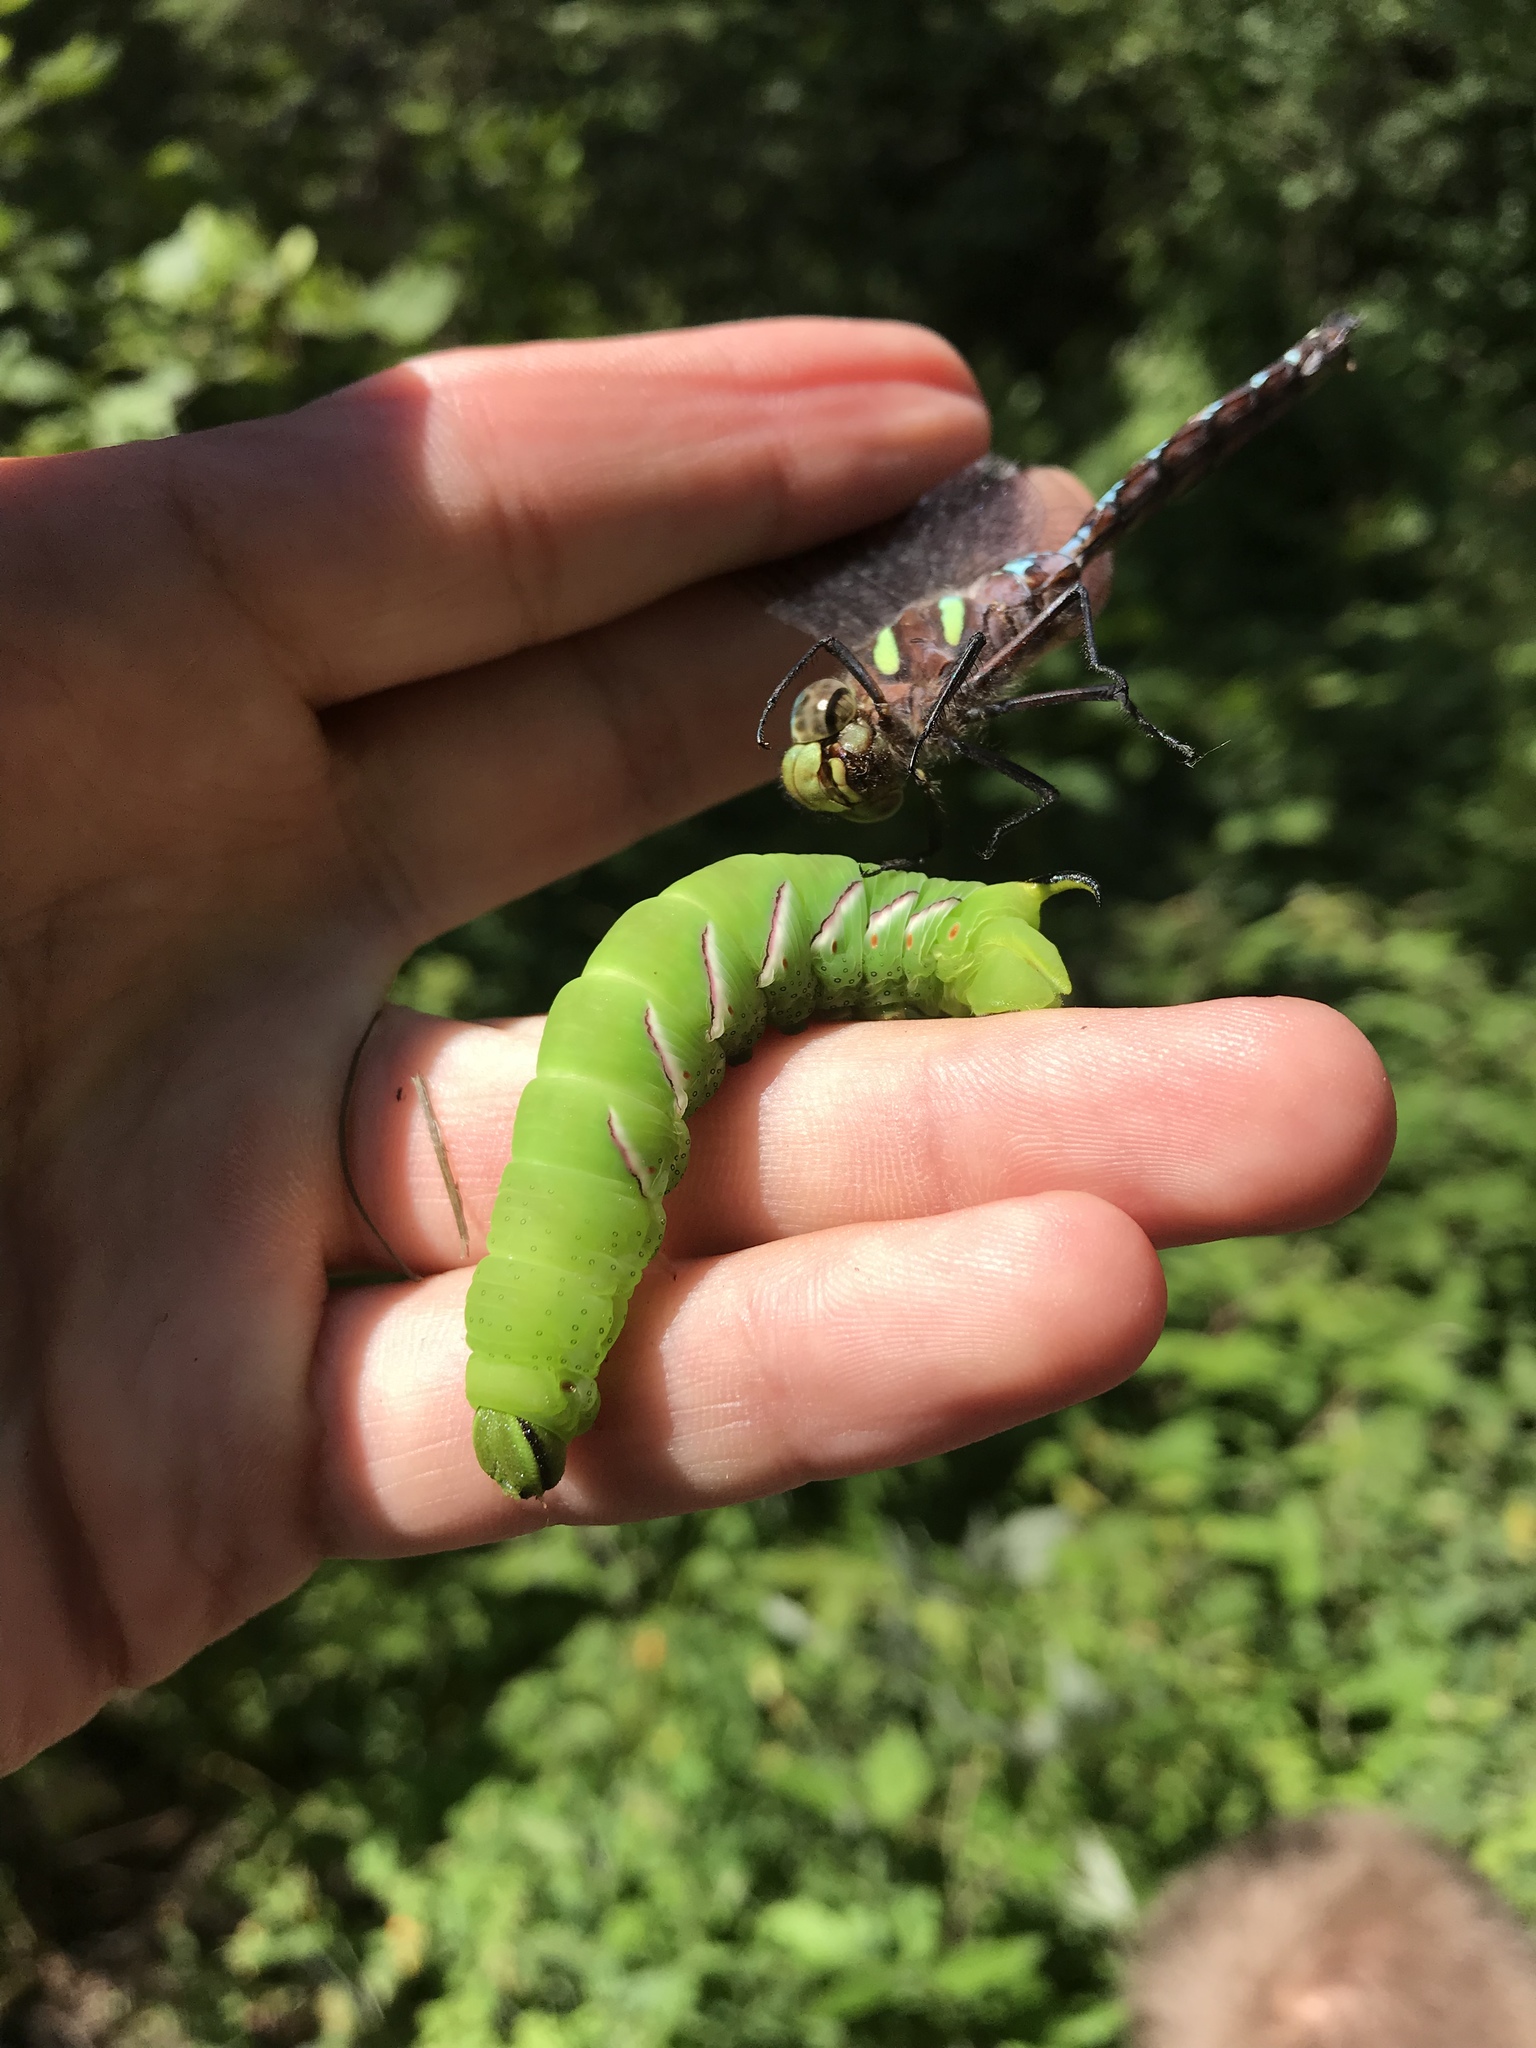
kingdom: Animalia
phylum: Arthropoda
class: Insecta
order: Lepidoptera
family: Sphingidae
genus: Sphinx
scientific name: Sphinx poecila
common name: Northern apple sphinx
